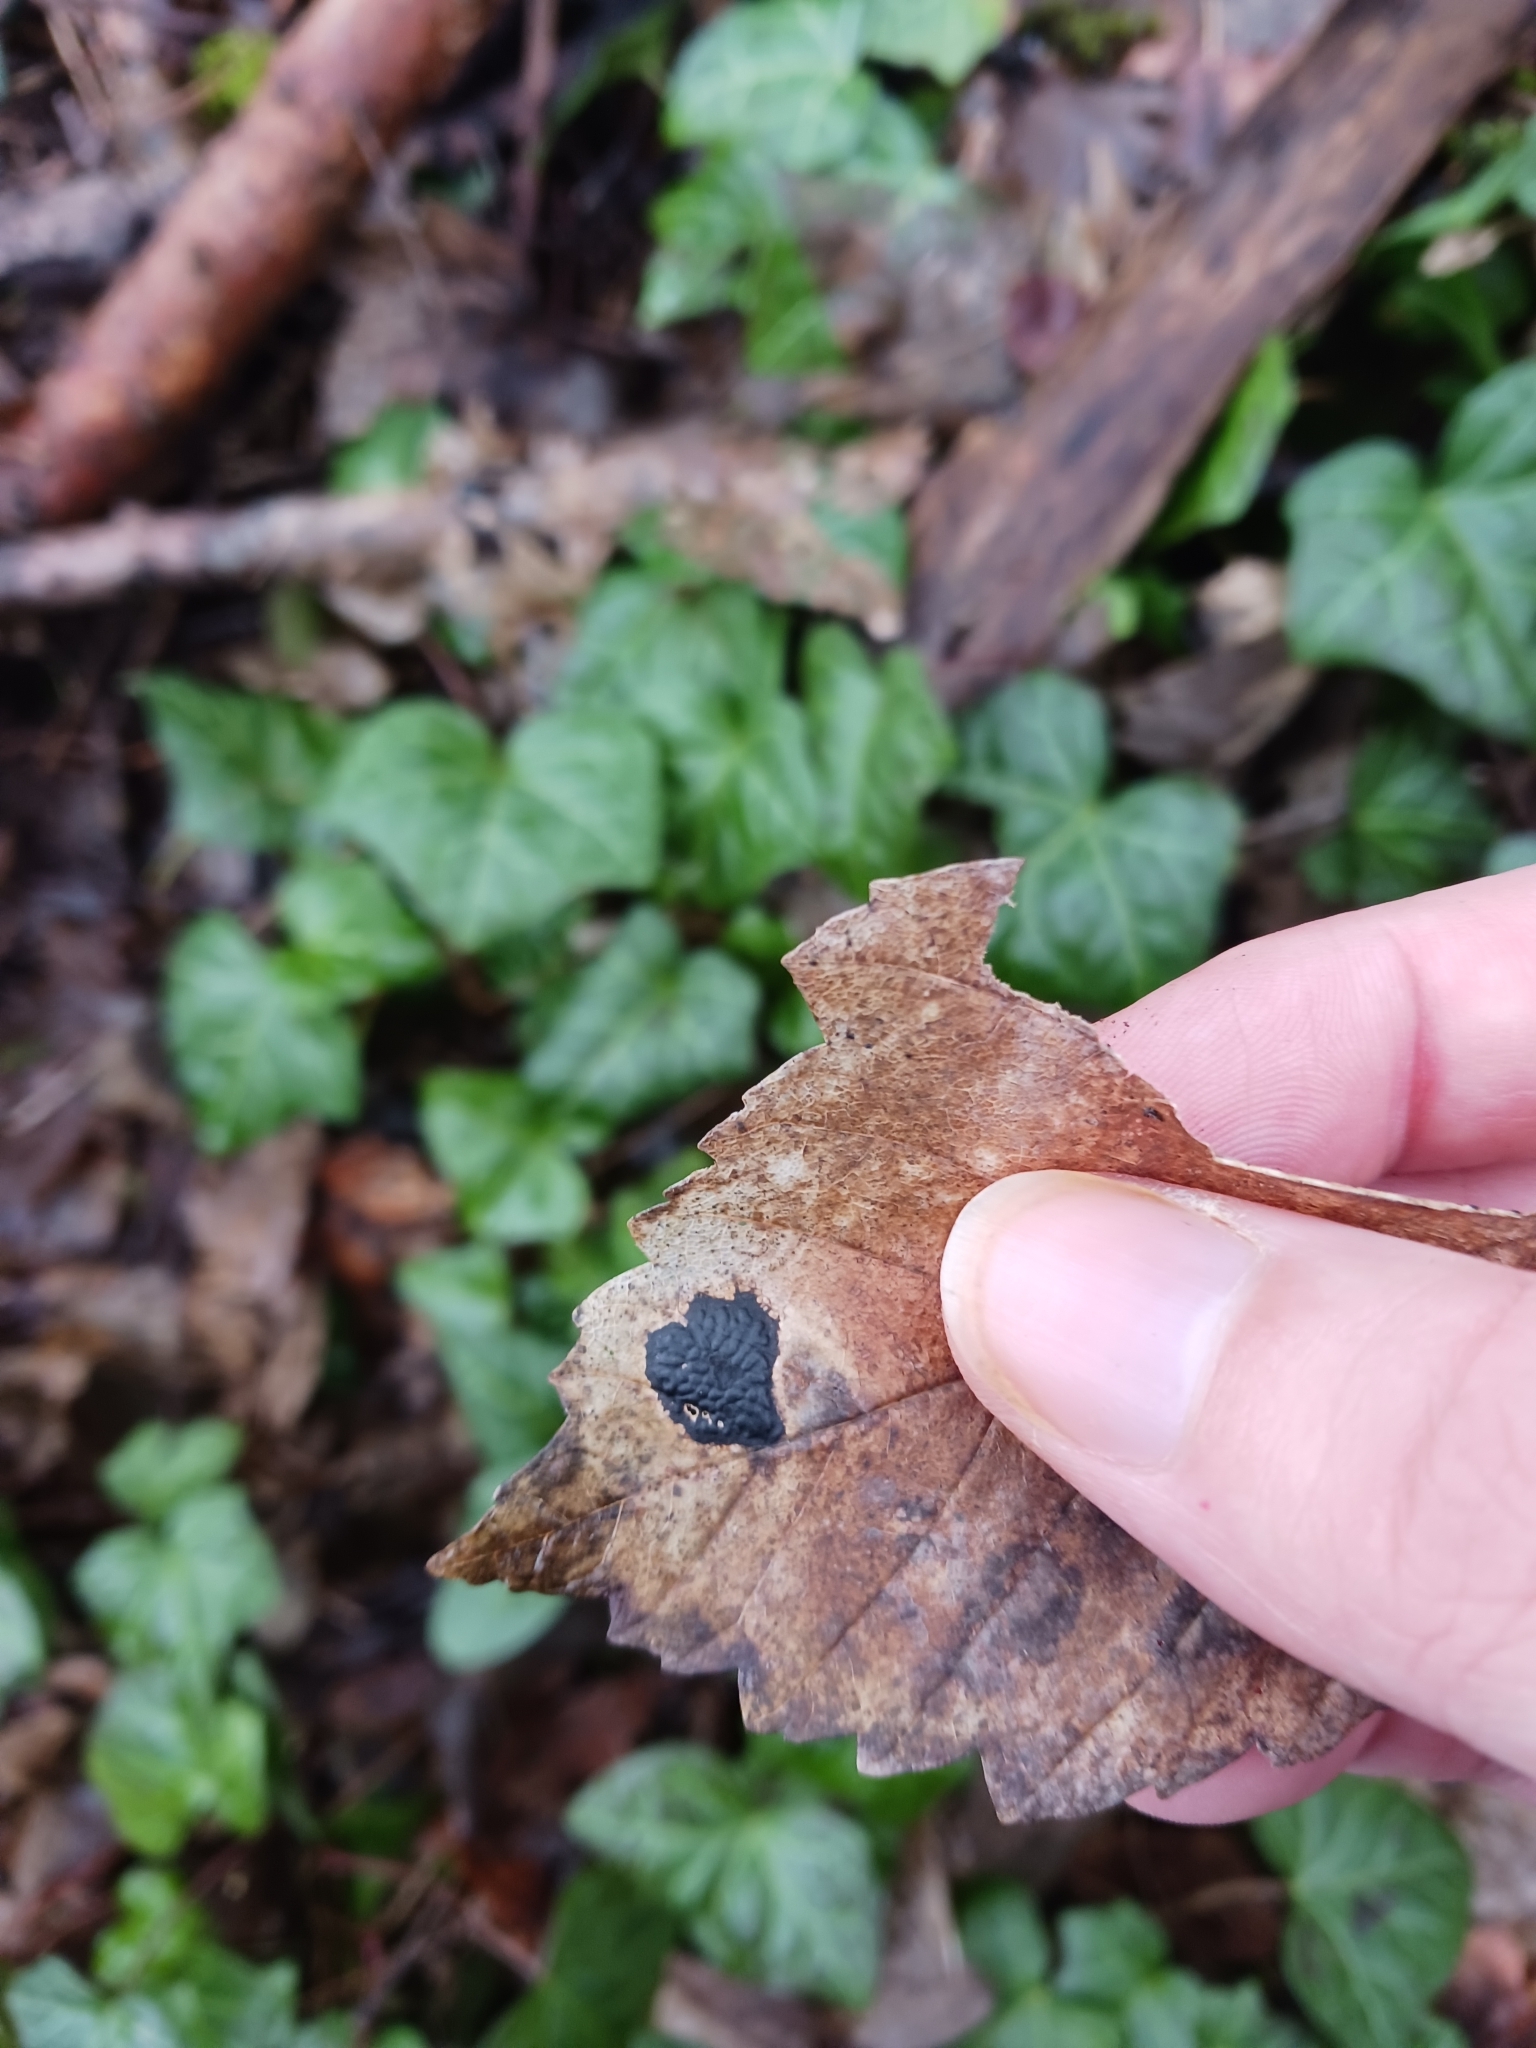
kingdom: Fungi
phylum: Ascomycota
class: Leotiomycetes
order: Rhytismatales
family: Rhytismataceae
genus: Rhytisma
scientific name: Rhytisma acerinum
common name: European tar spot
